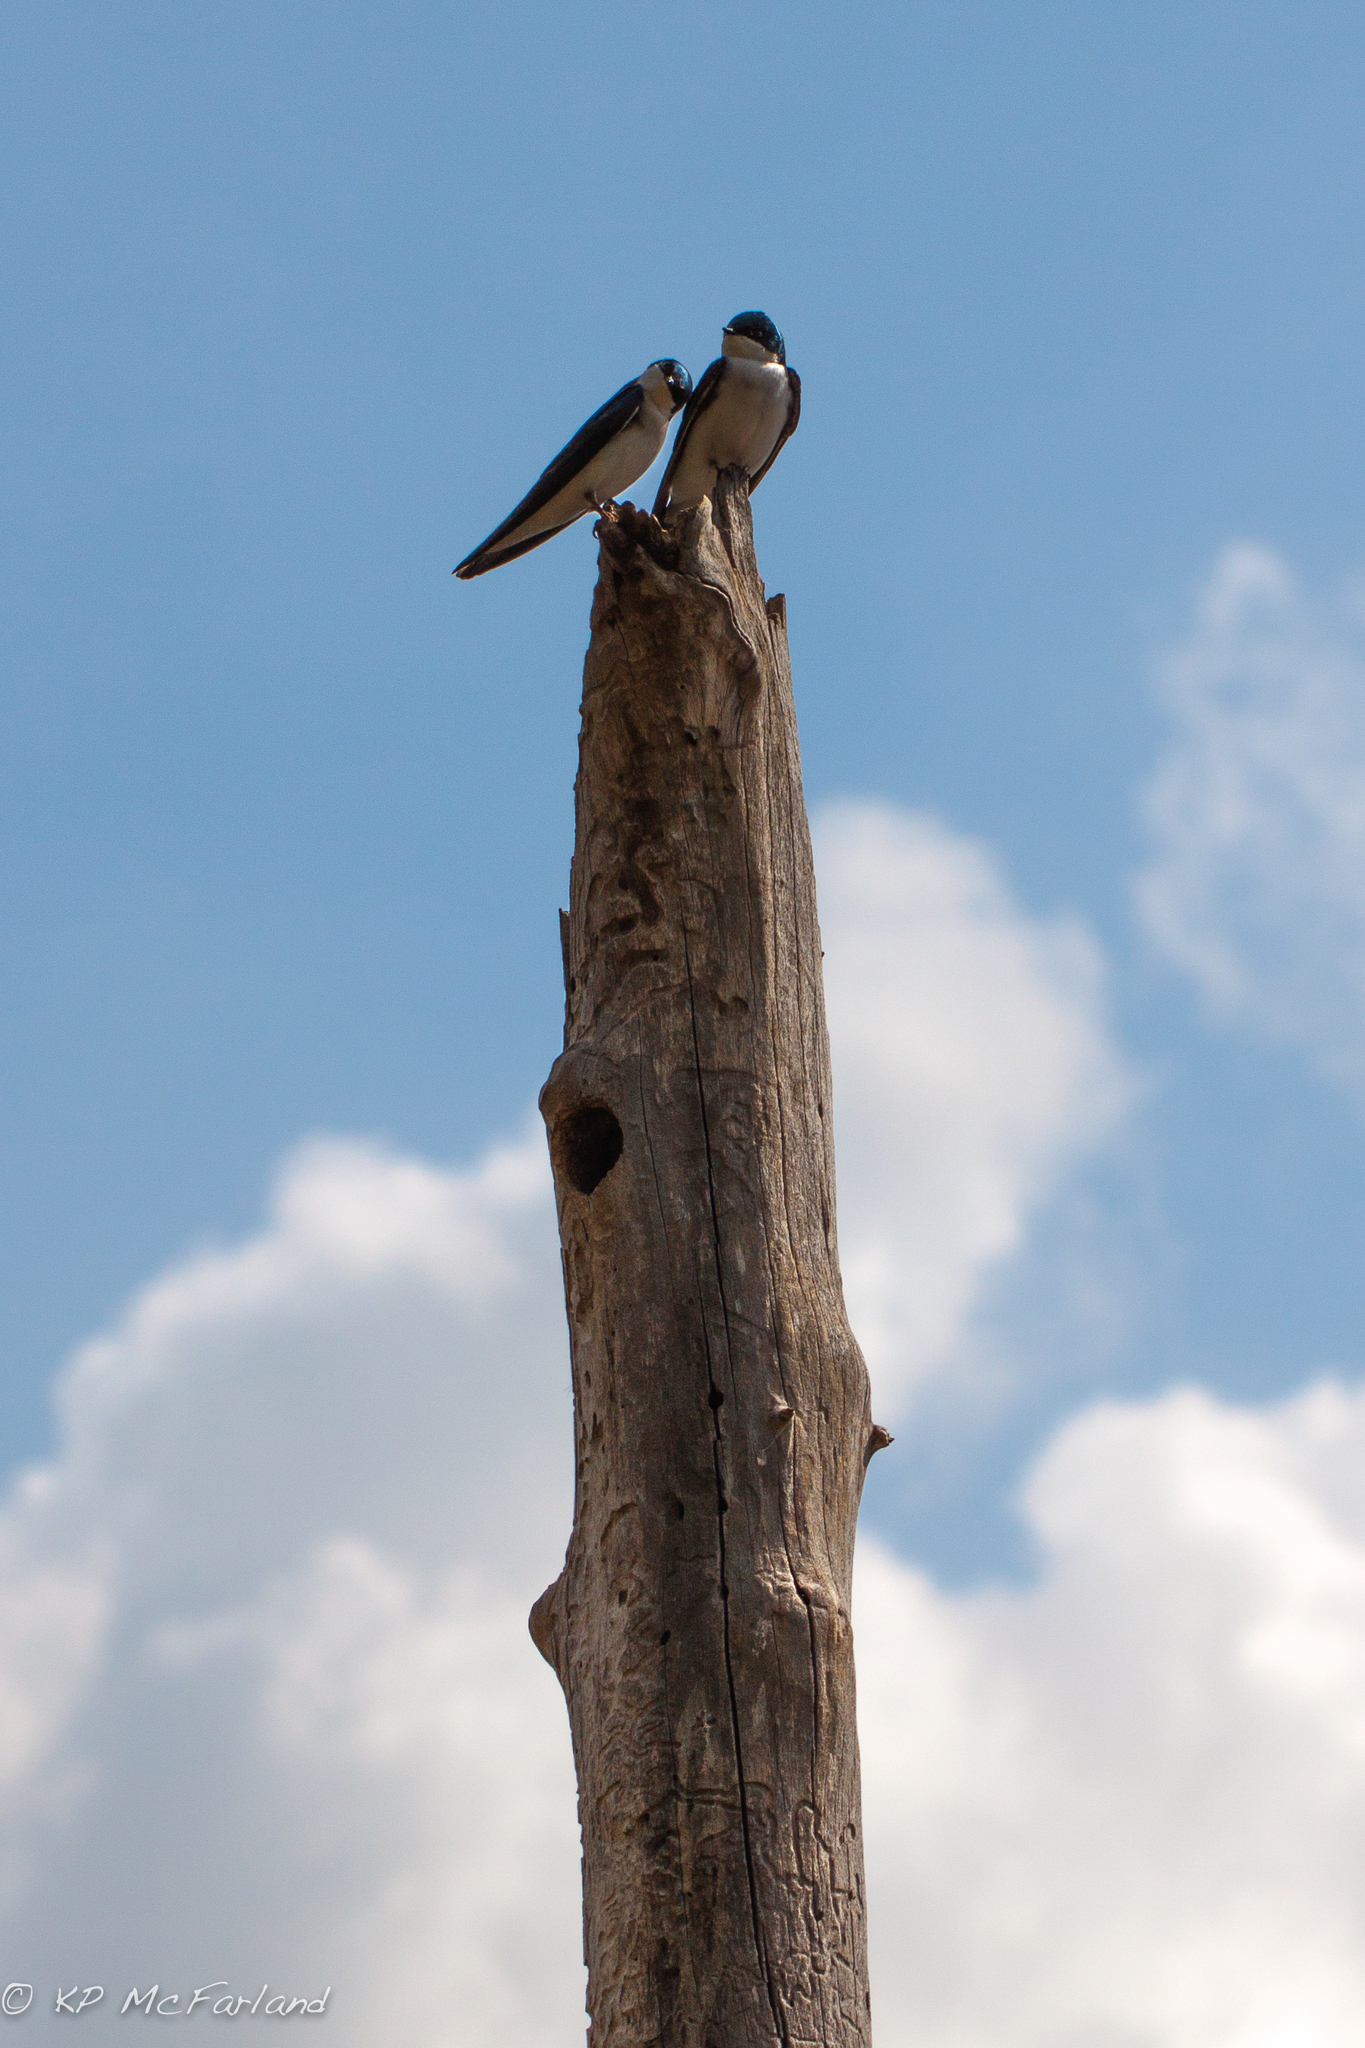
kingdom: Animalia
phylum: Chordata
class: Aves
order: Passeriformes
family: Hirundinidae
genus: Tachycineta
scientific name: Tachycineta bicolor
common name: Tree swallow
